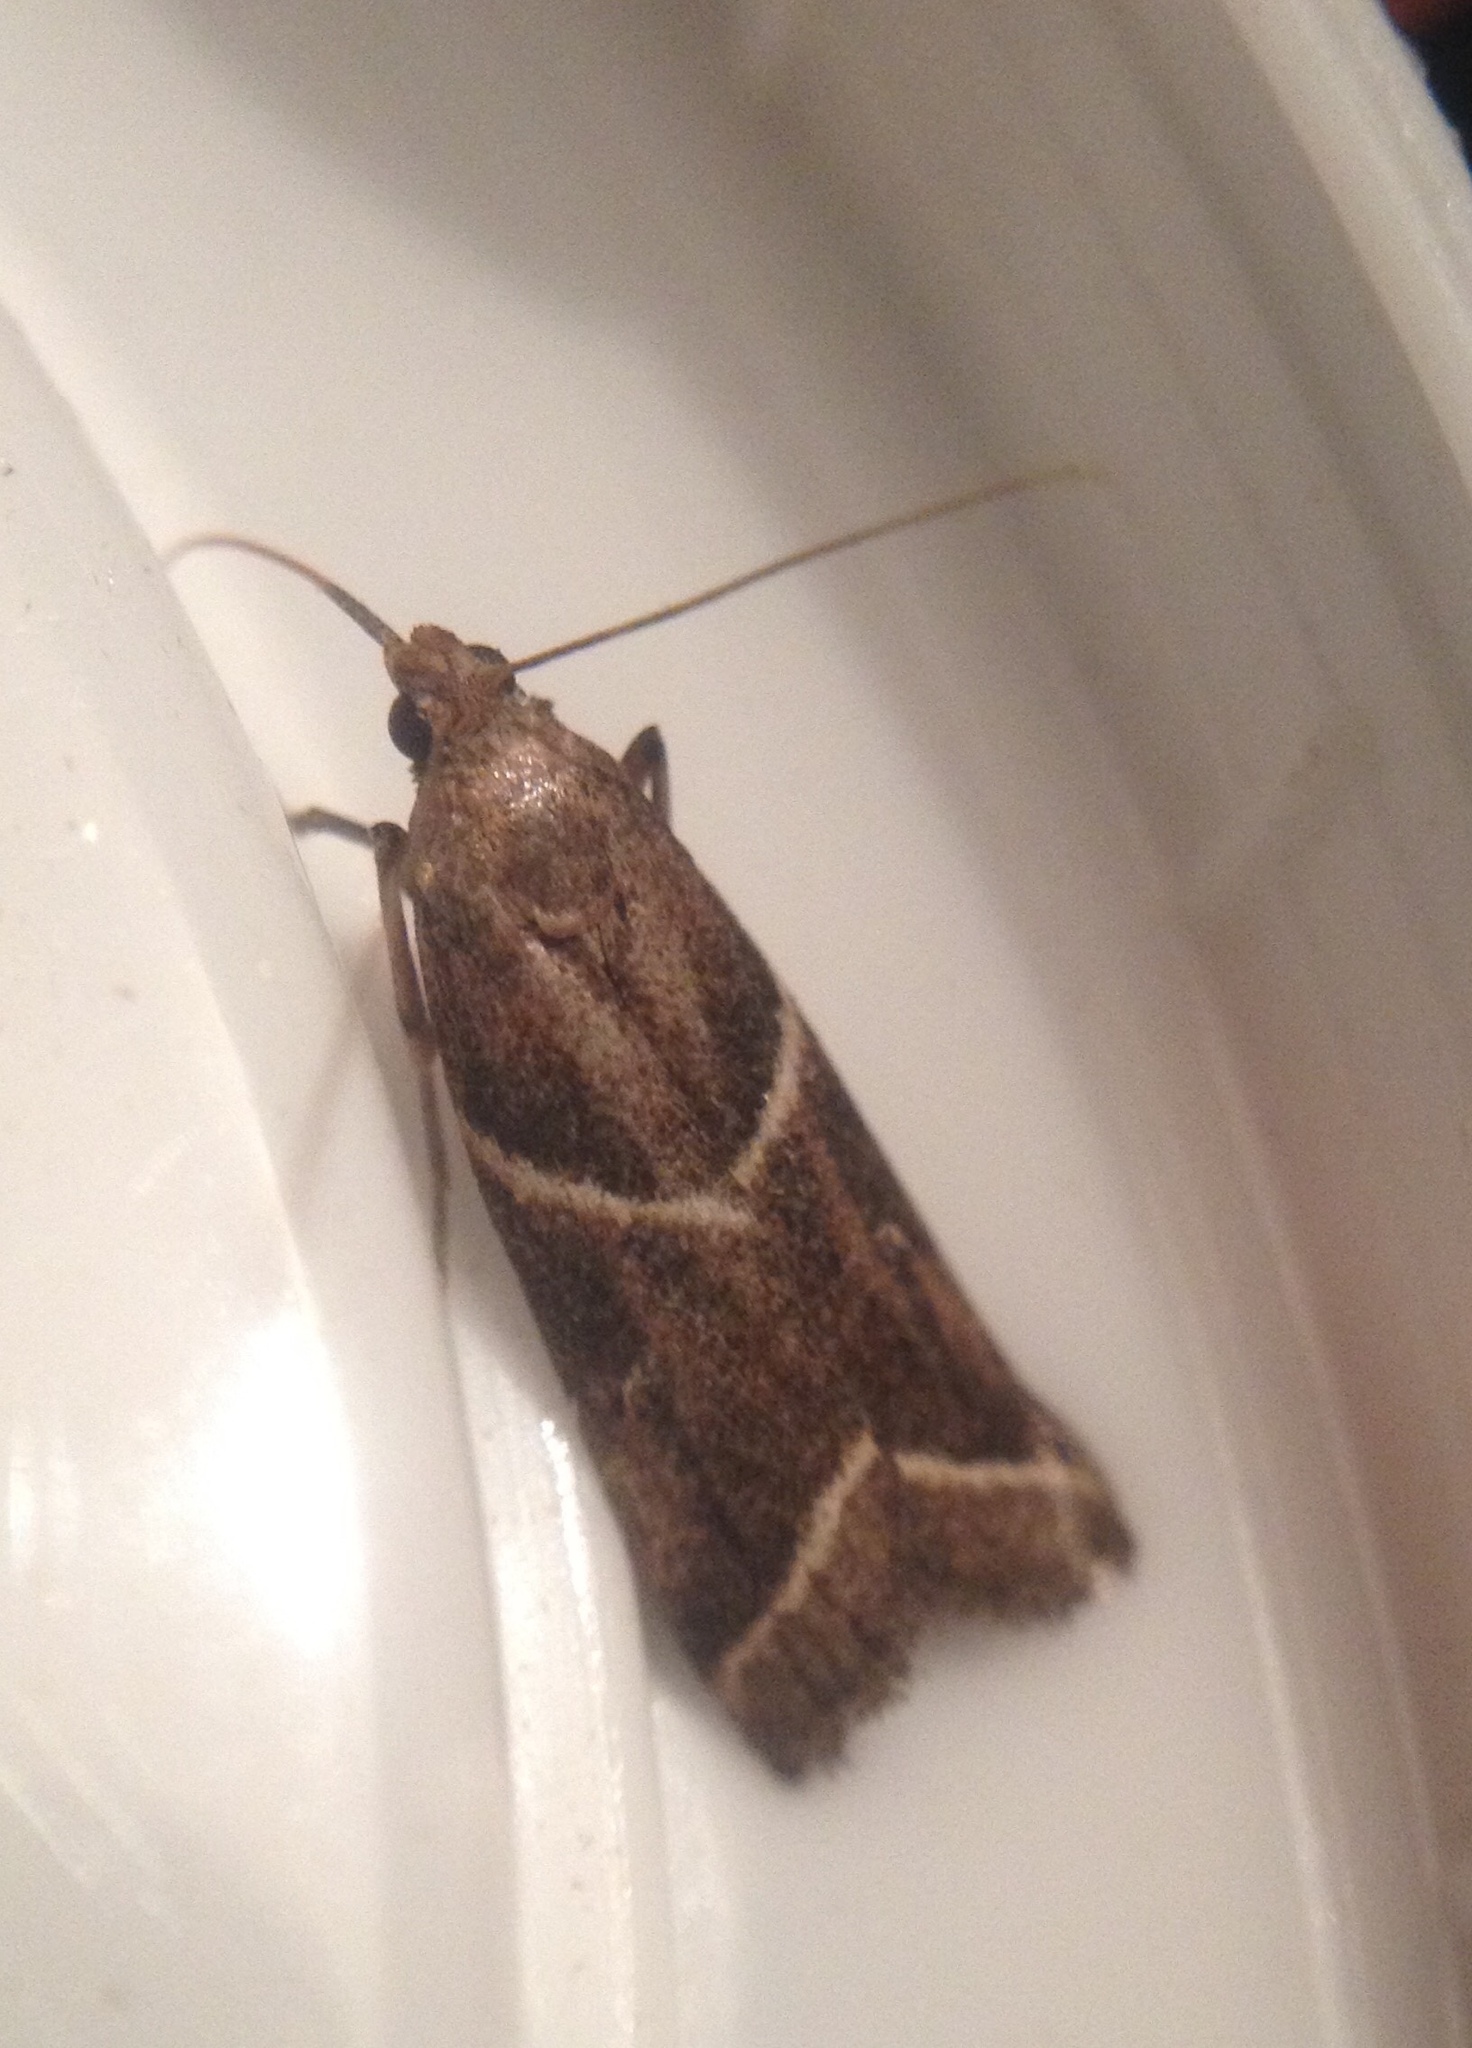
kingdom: Animalia
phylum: Arthropoda
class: Insecta
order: Lepidoptera
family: Pyralidae
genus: Nyctegretis
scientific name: Nyctegretis lineana
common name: Agate knot-horn
